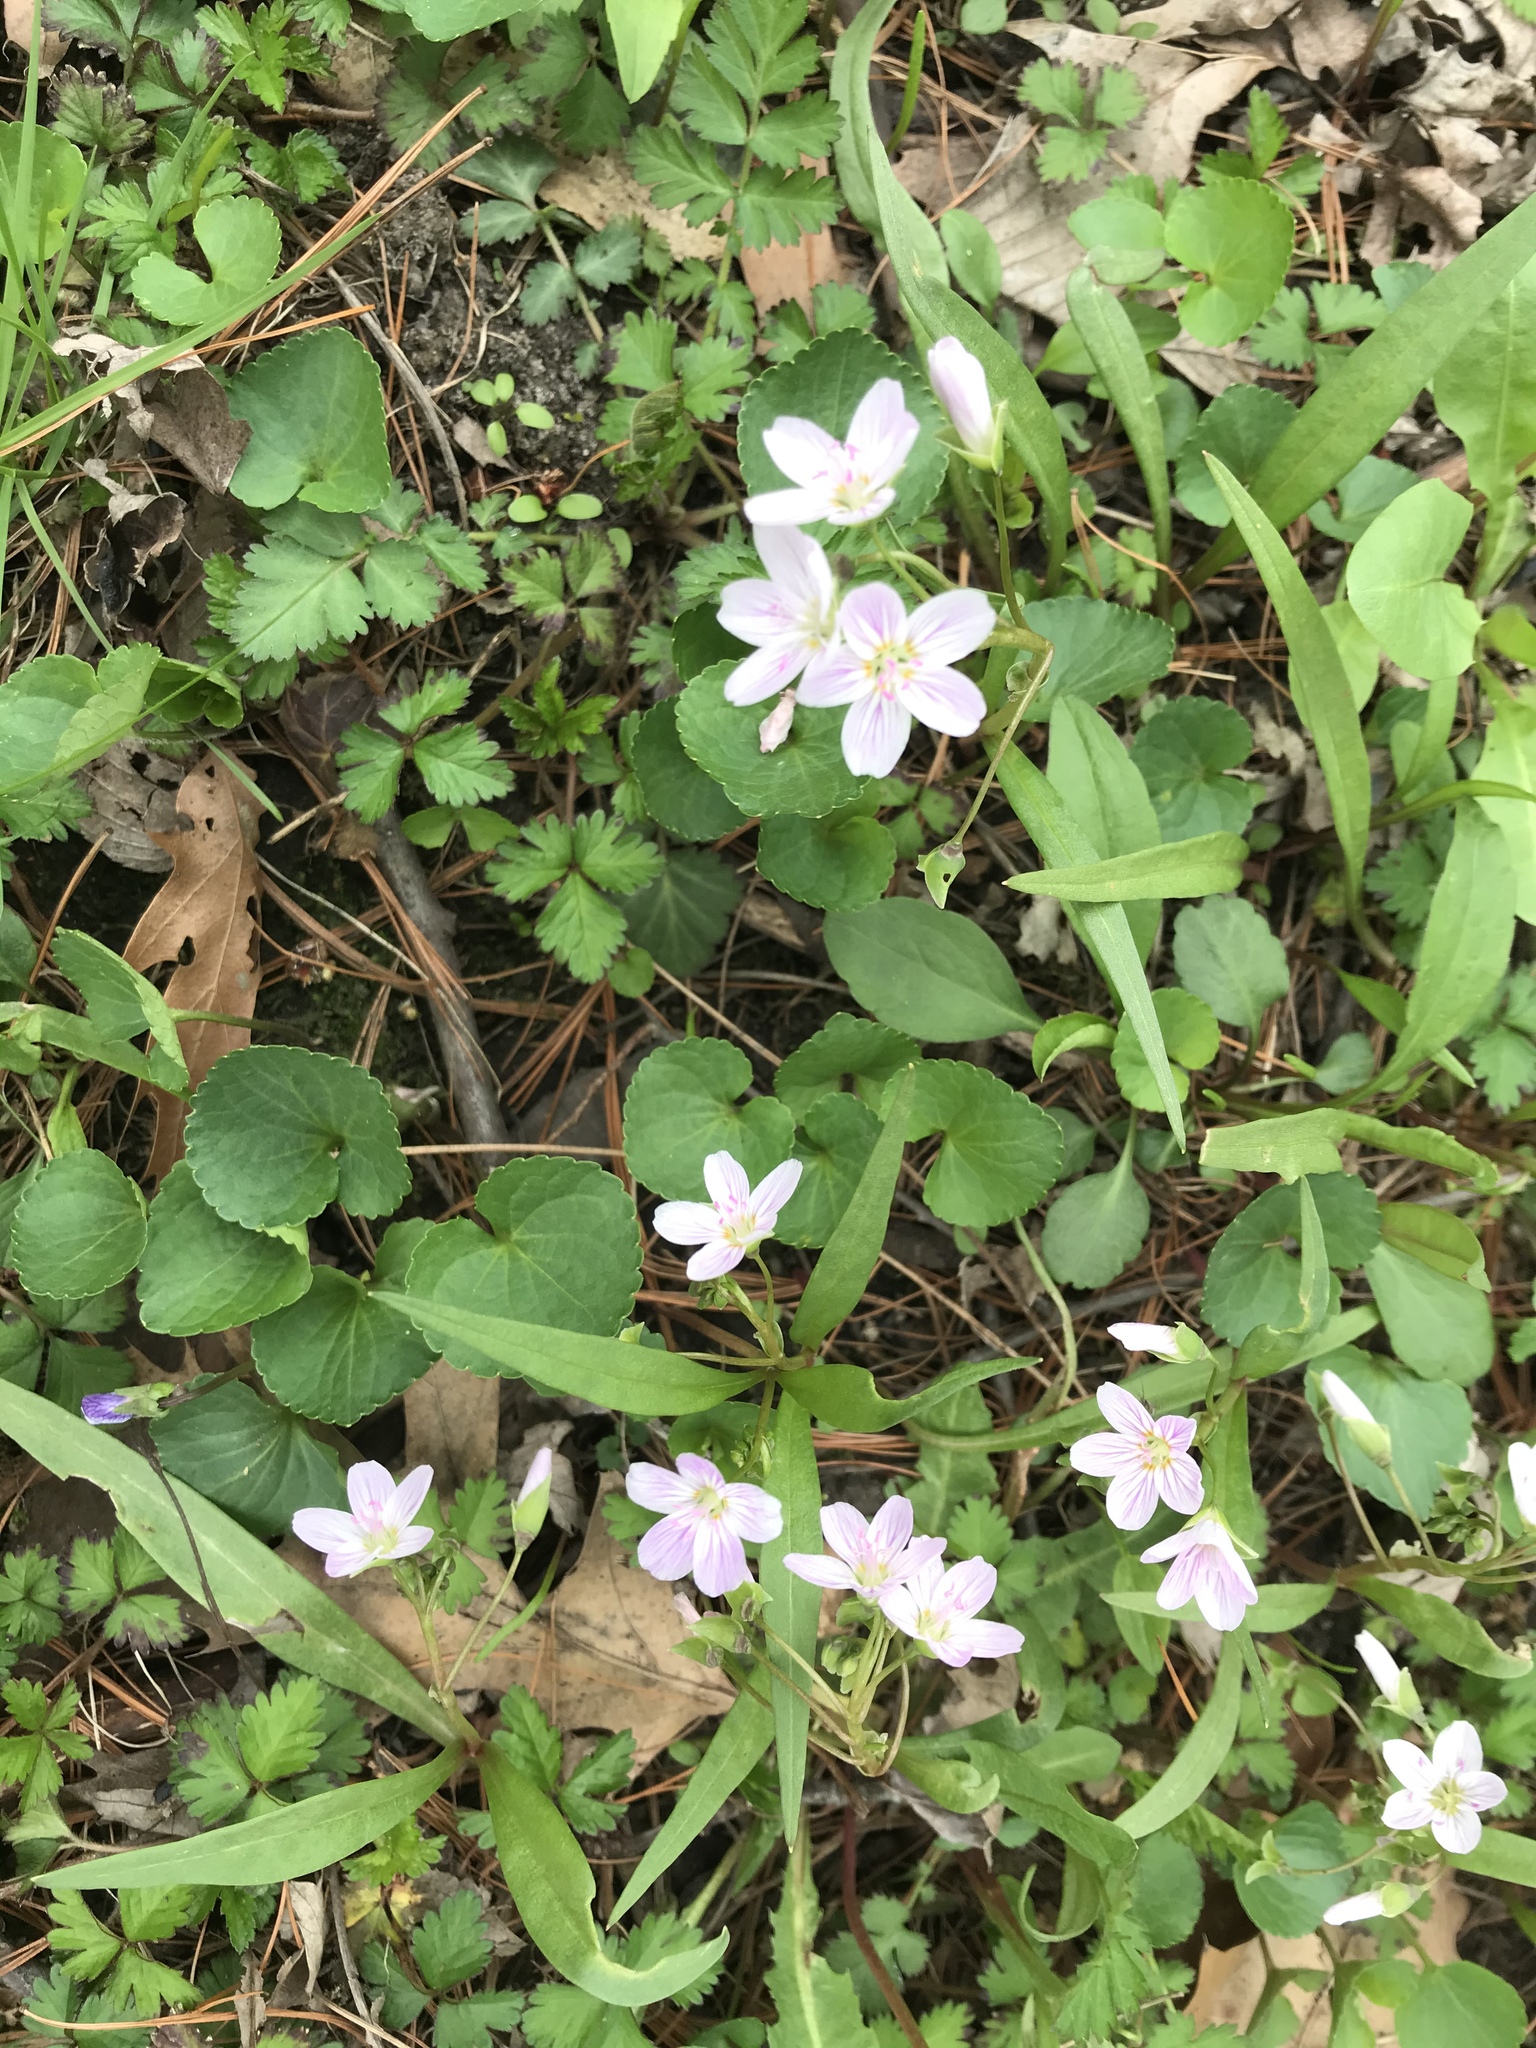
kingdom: Plantae
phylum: Tracheophyta
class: Magnoliopsida
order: Caryophyllales
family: Montiaceae
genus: Claytonia
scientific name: Claytonia virginica
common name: Virginia springbeauty
